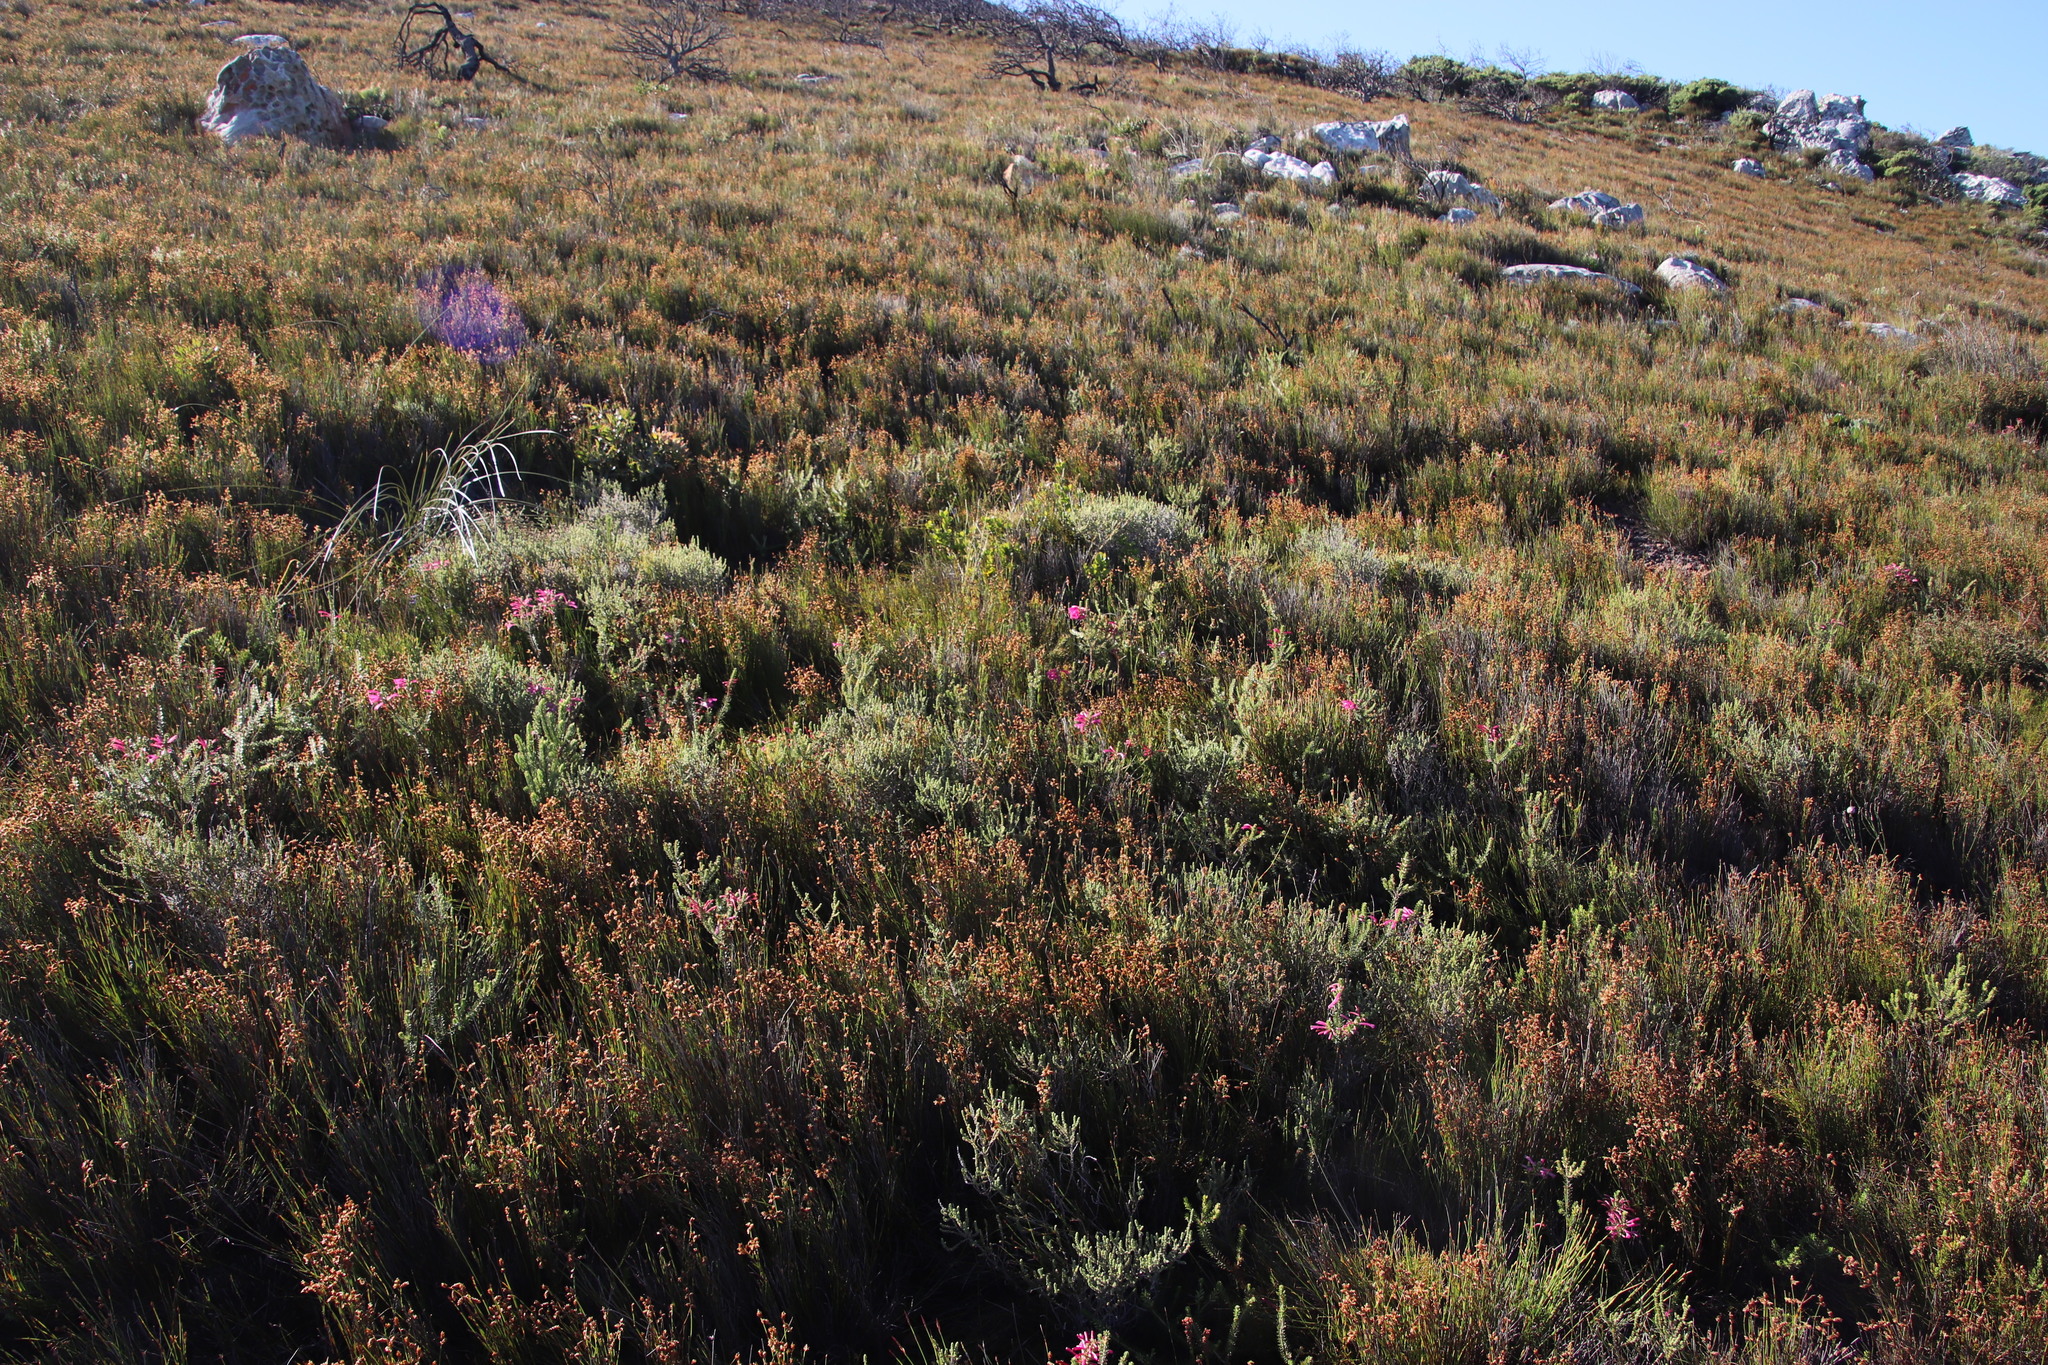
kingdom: Plantae
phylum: Tracheophyta
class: Magnoliopsida
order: Ericales
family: Ericaceae
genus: Erica
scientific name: Erica abietina
